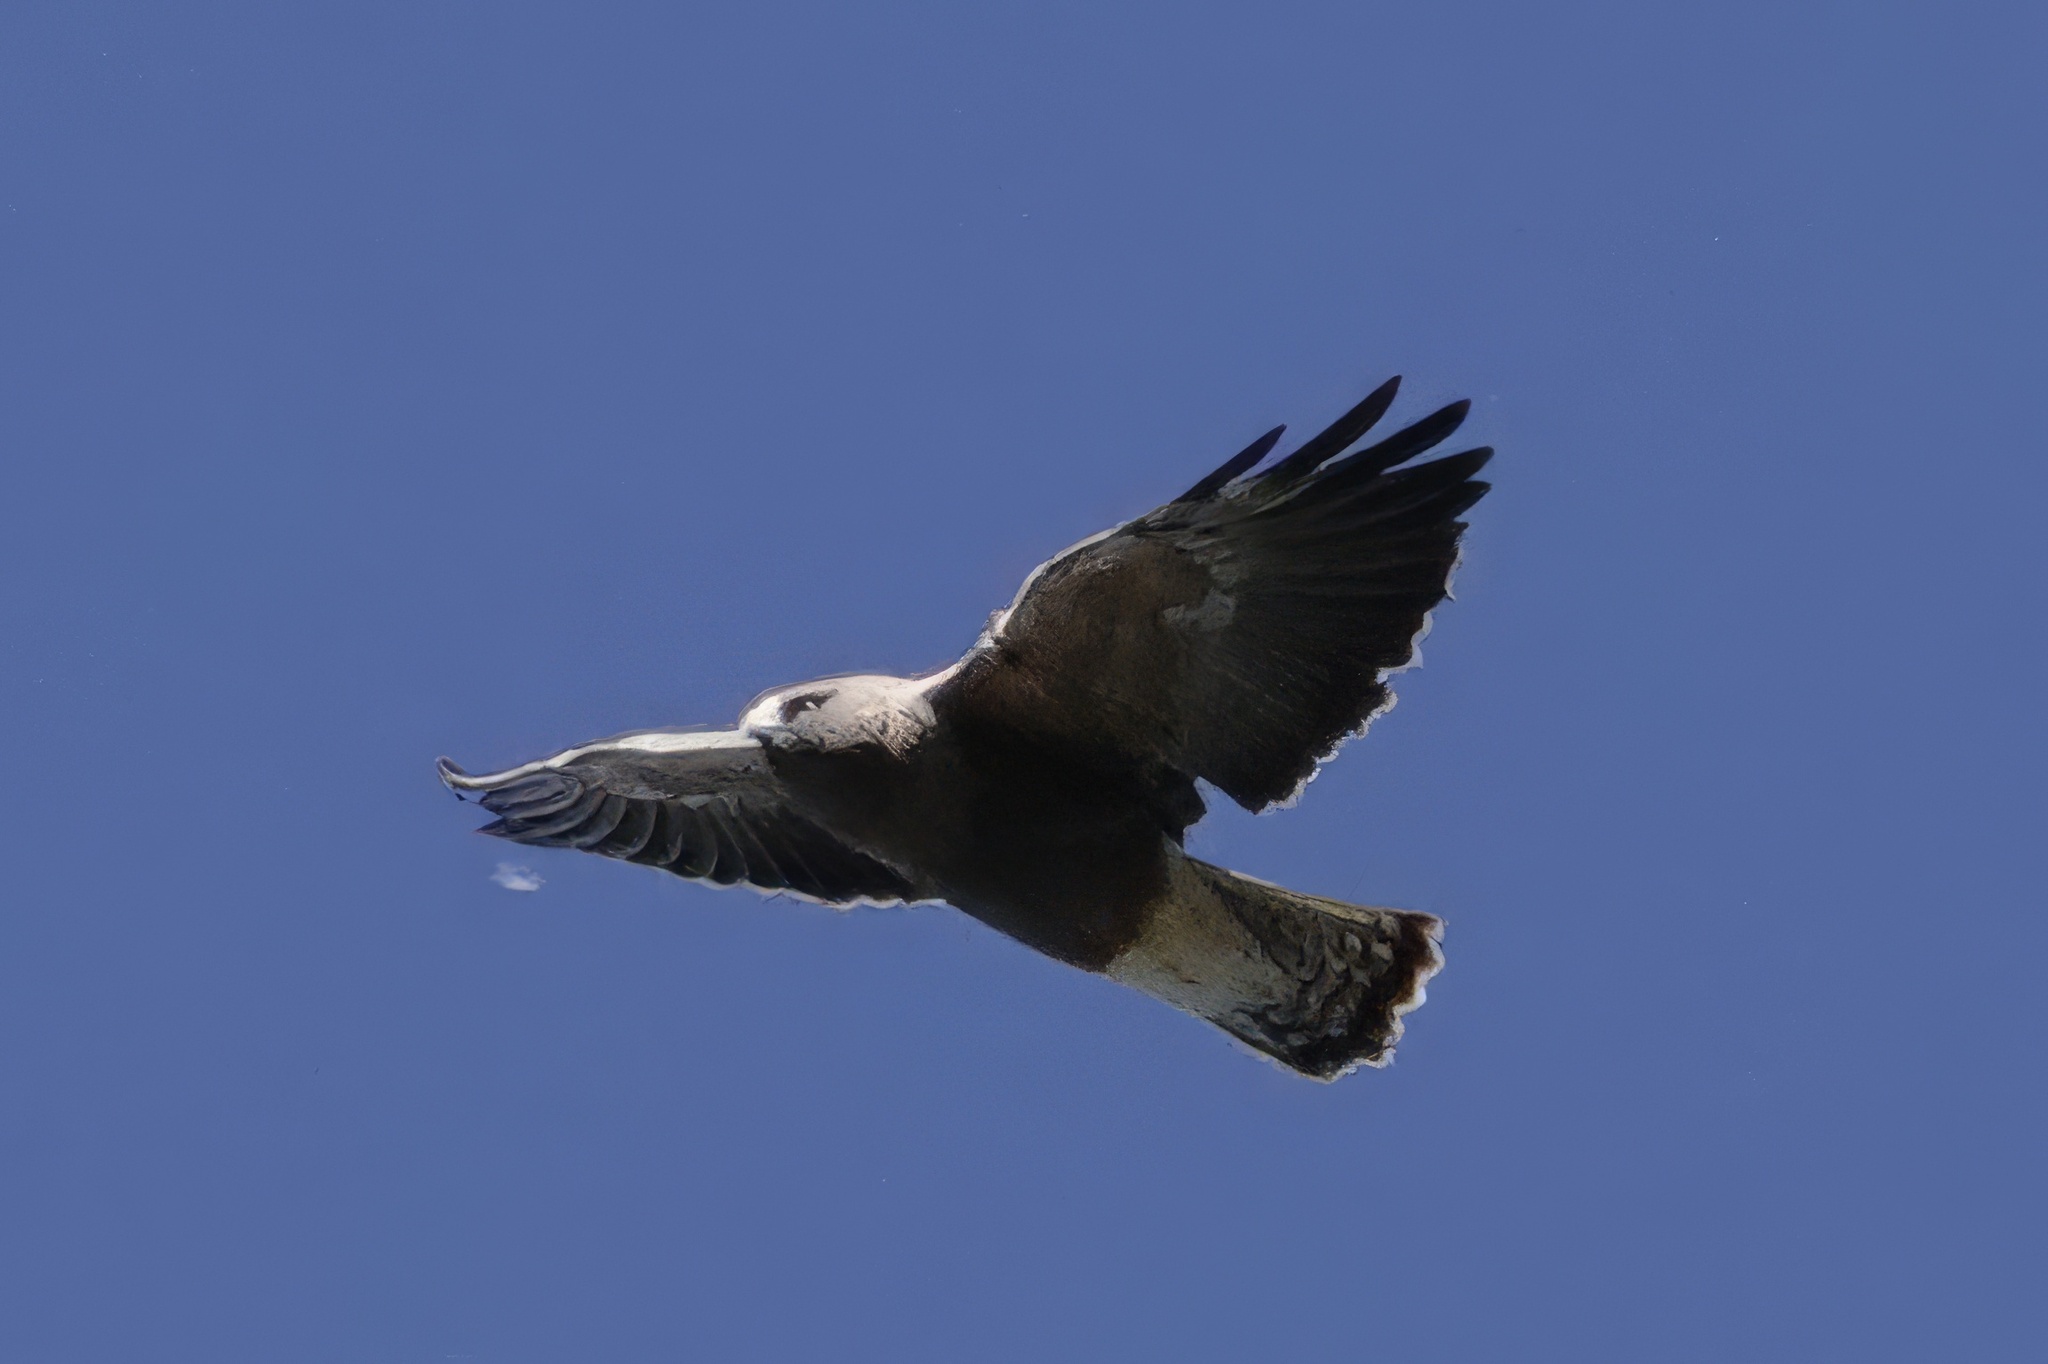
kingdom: Animalia
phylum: Chordata
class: Aves
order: Accipitriformes
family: Accipitridae
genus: Buteo
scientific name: Buteo swainsoni
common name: Swainson's hawk
